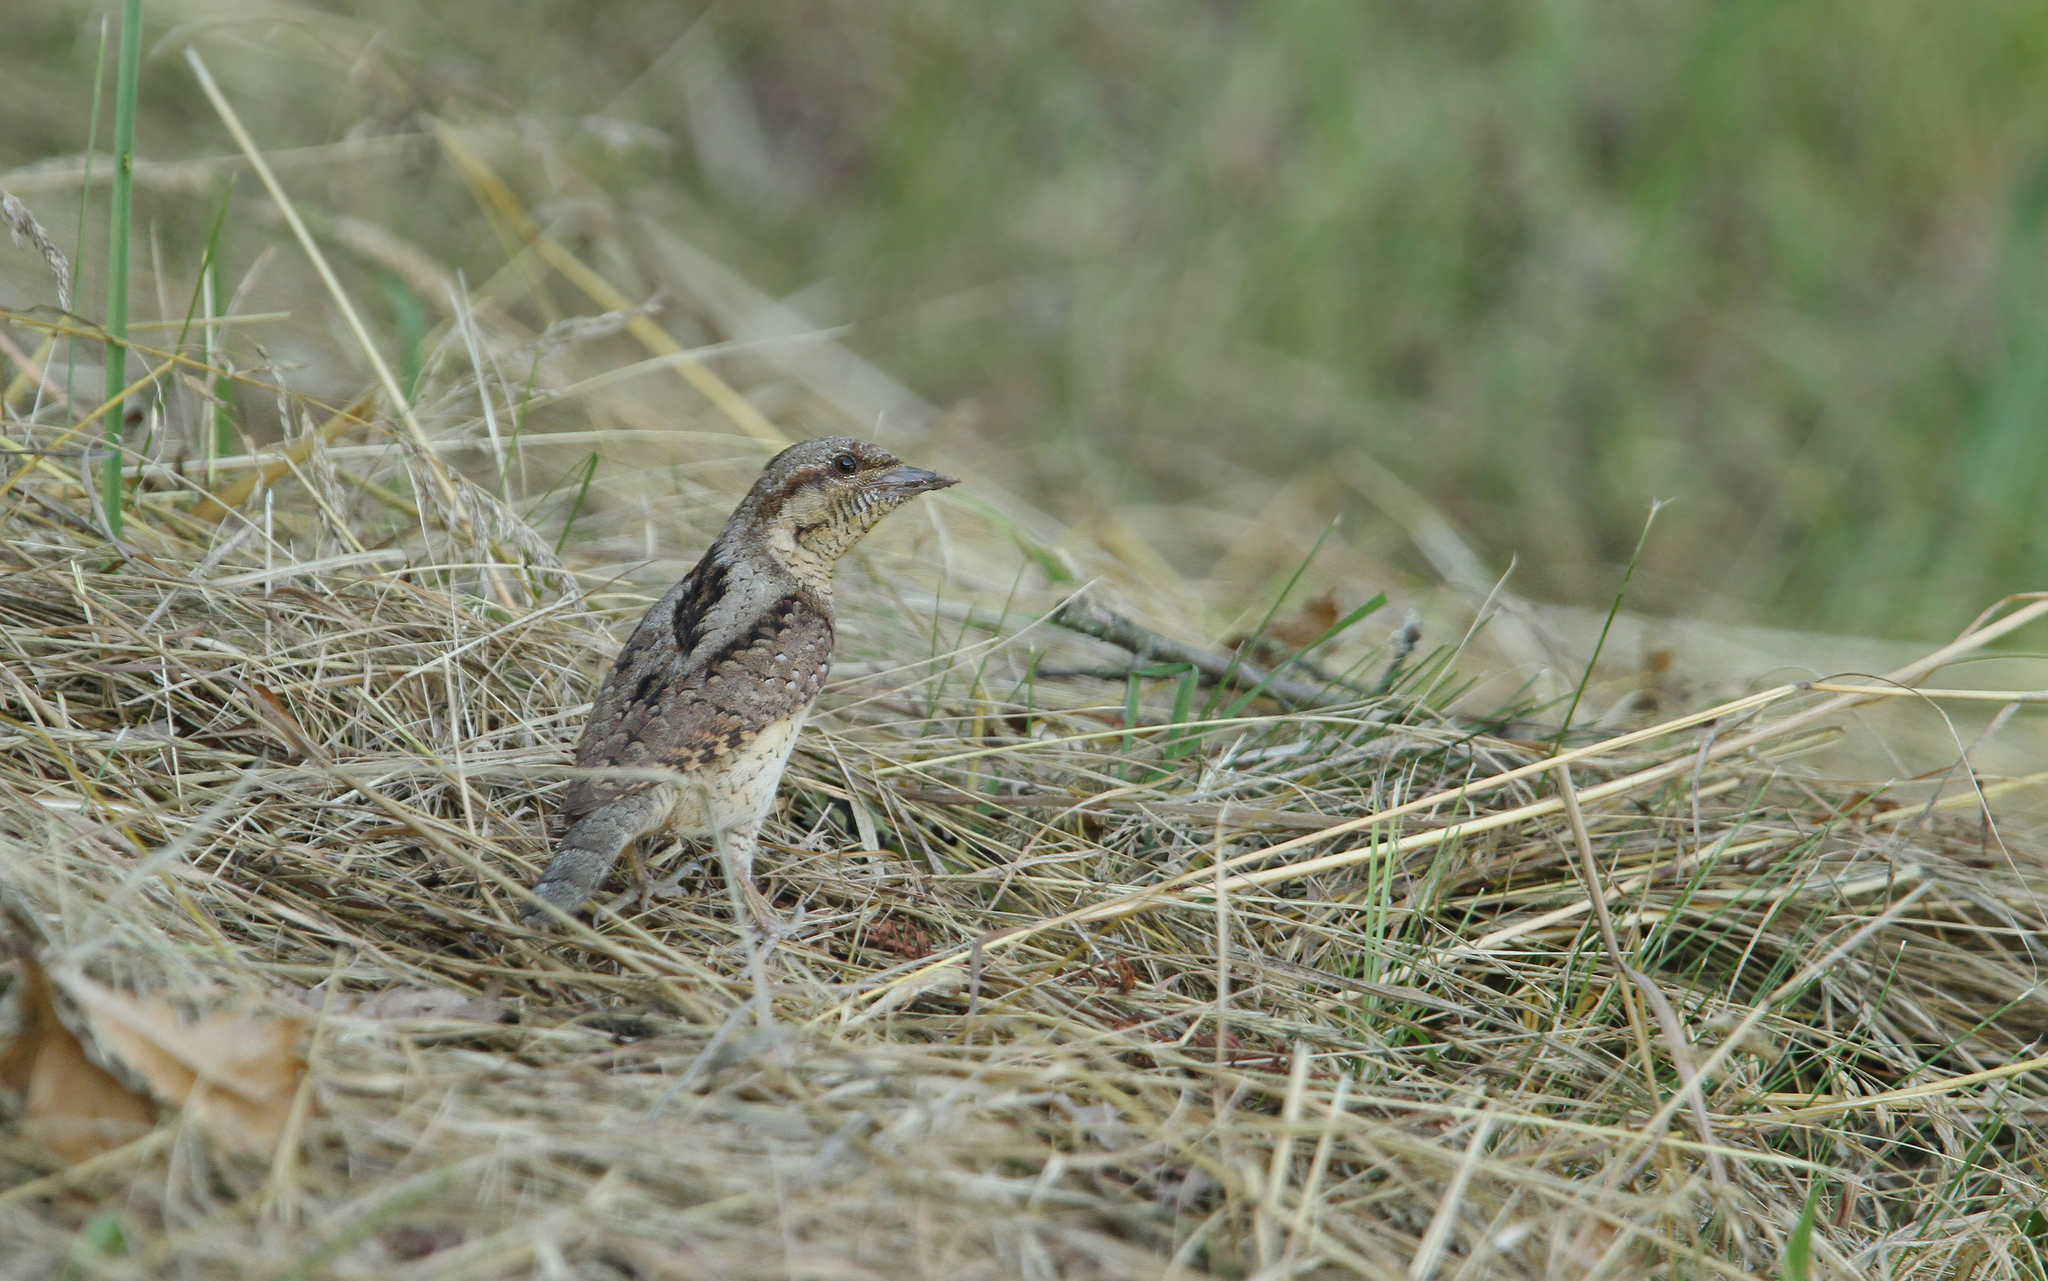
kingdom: Animalia
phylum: Chordata
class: Aves
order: Piciformes
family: Picidae
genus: Jynx
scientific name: Jynx torquilla
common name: Eurasian wryneck
